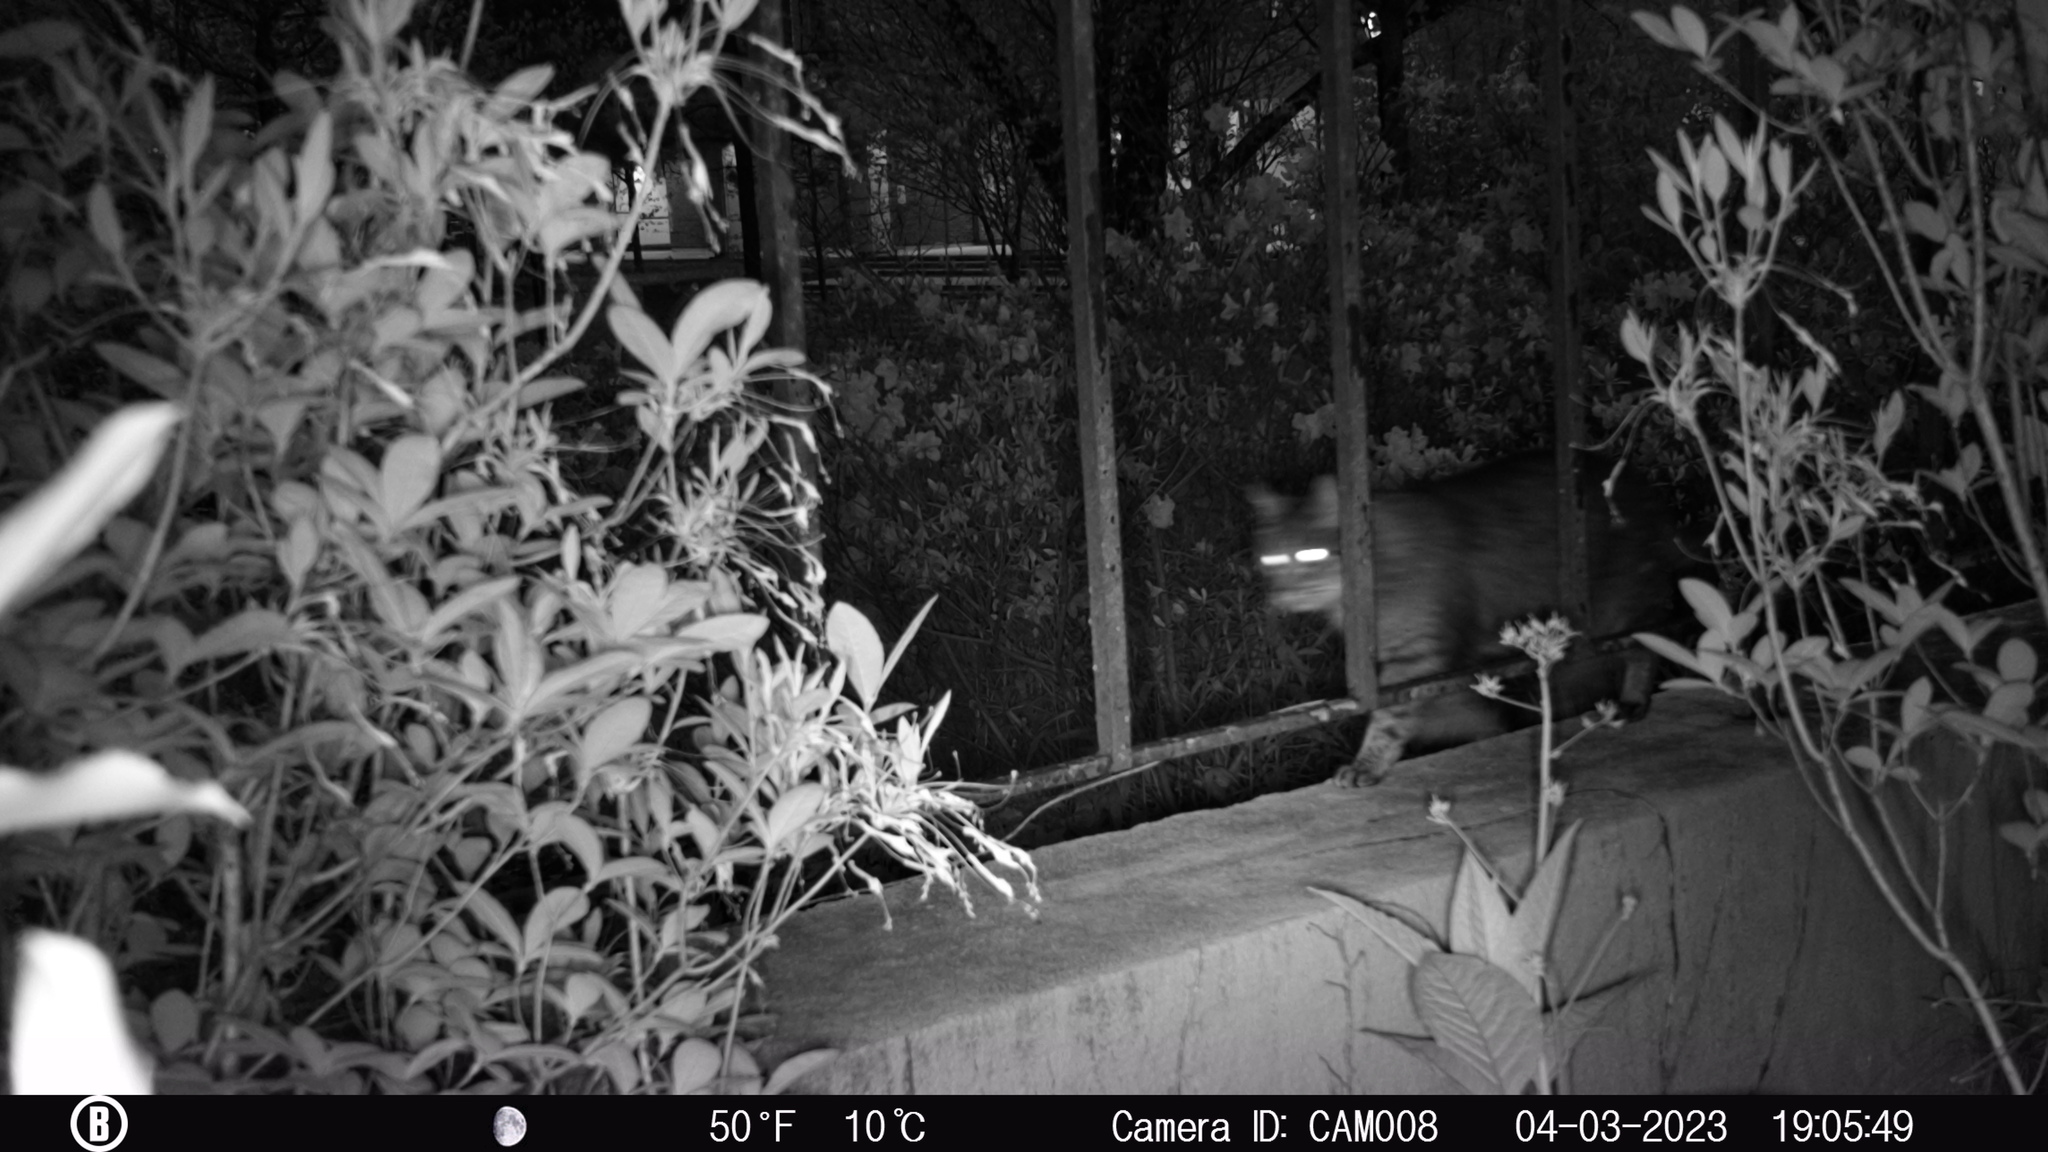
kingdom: Animalia
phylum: Chordata
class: Mammalia
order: Carnivora
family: Felidae
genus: Felis
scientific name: Felis catus
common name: Domestic cat
